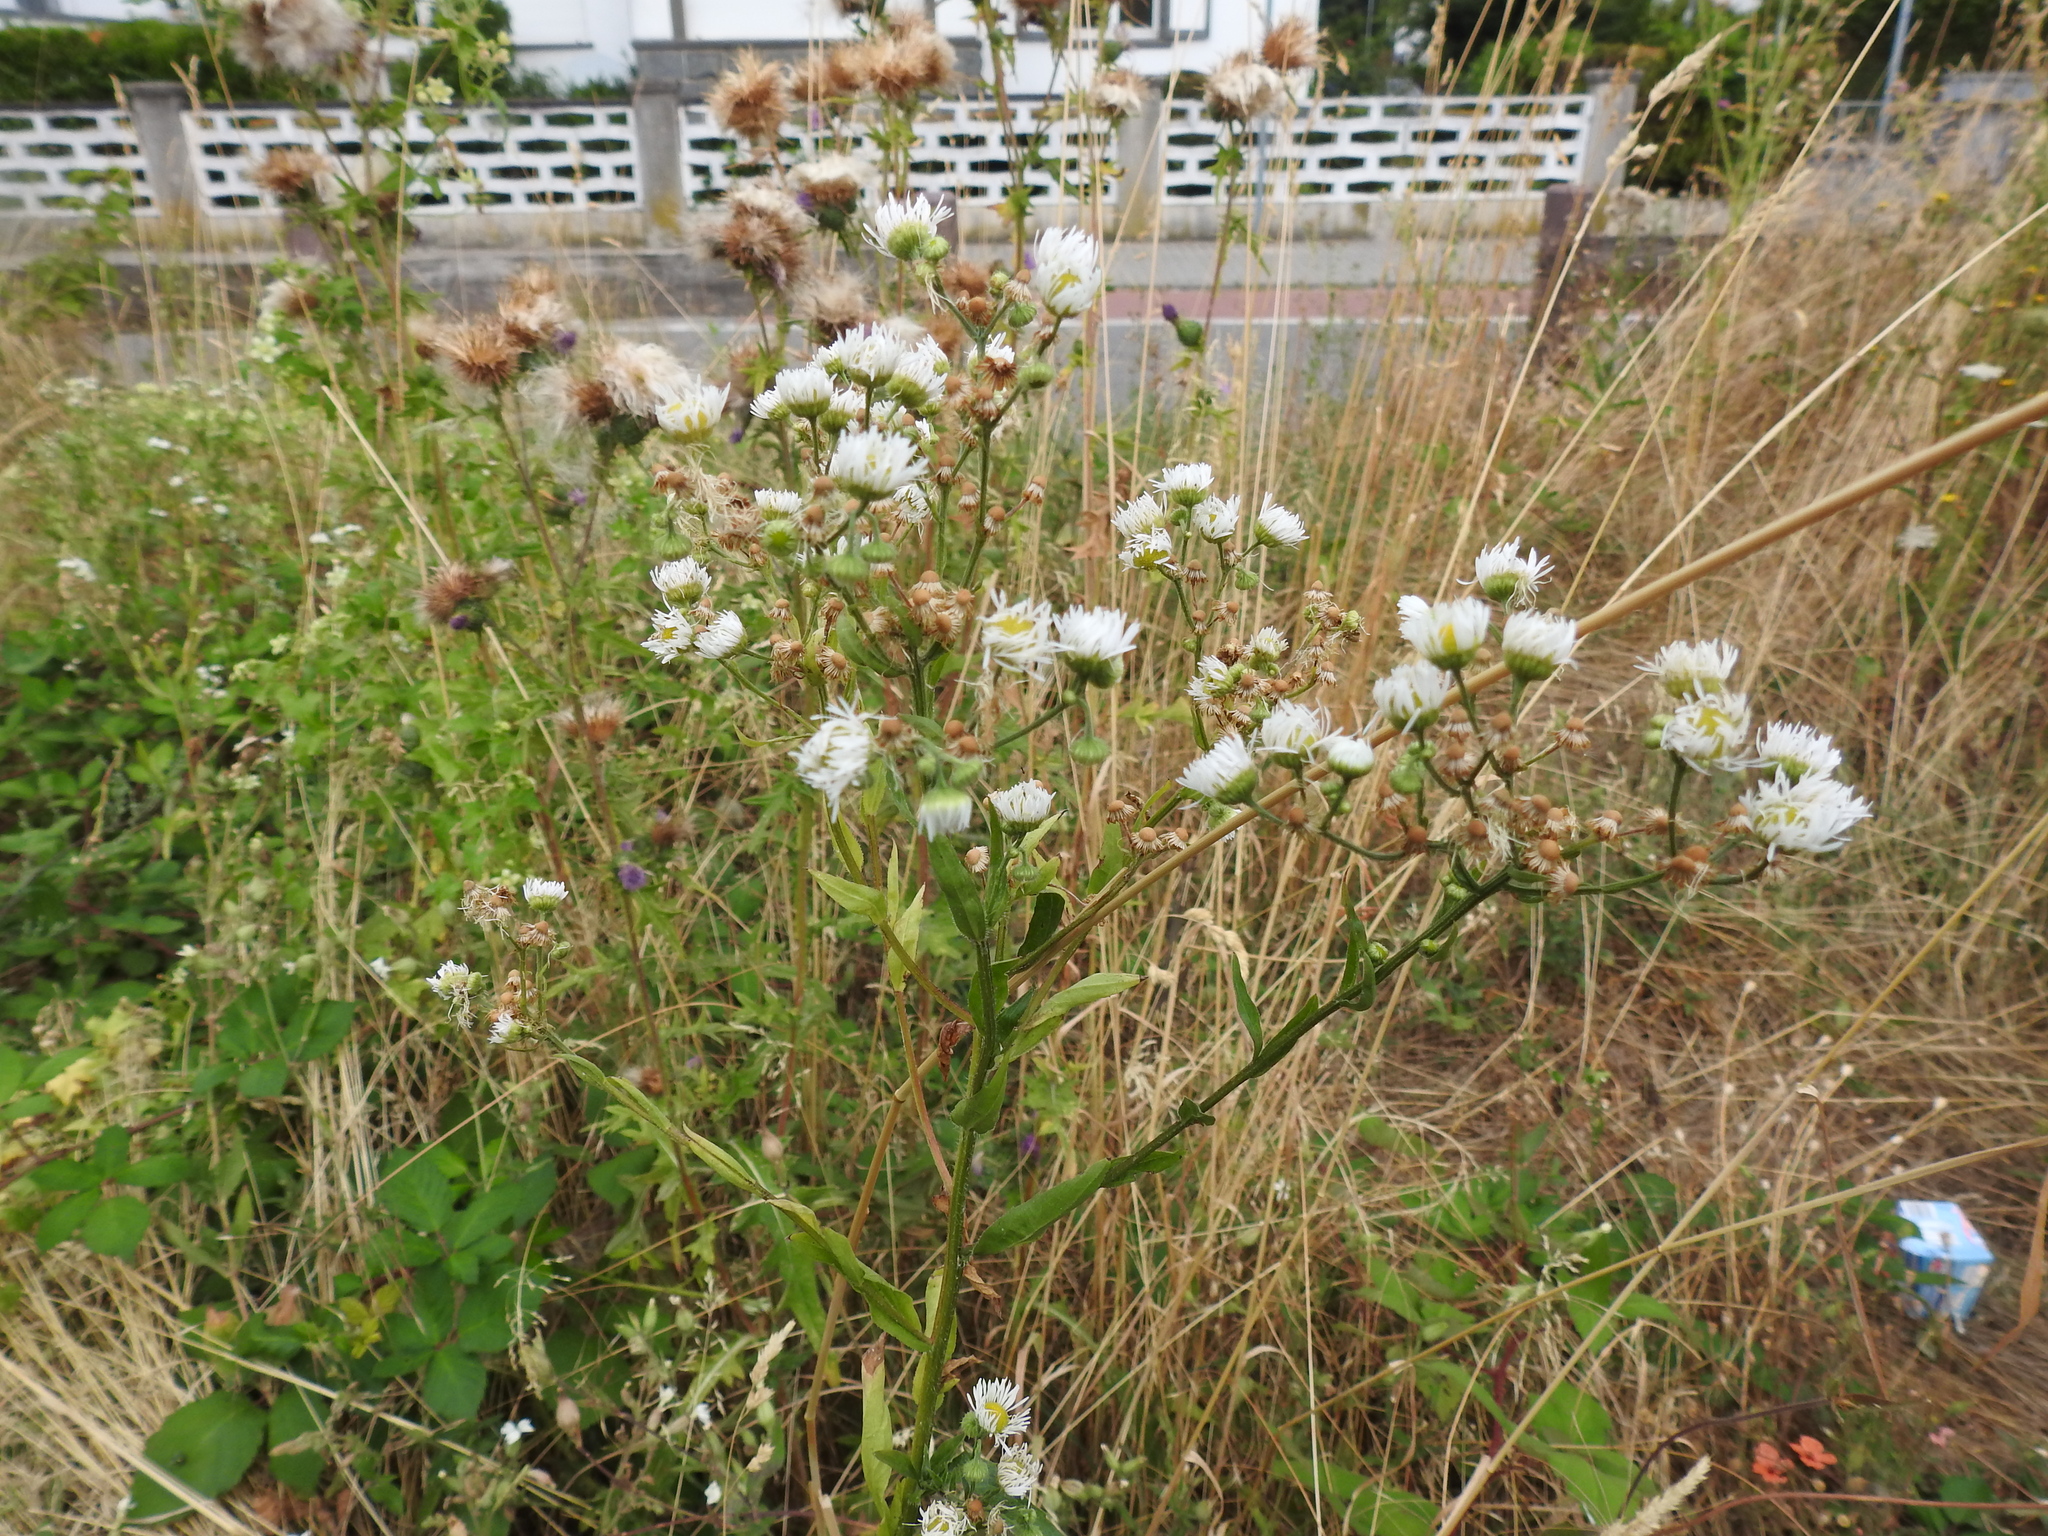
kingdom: Plantae
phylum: Tracheophyta
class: Magnoliopsida
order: Asterales
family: Asteraceae
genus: Erigeron
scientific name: Erigeron annuus
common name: Tall fleabane
